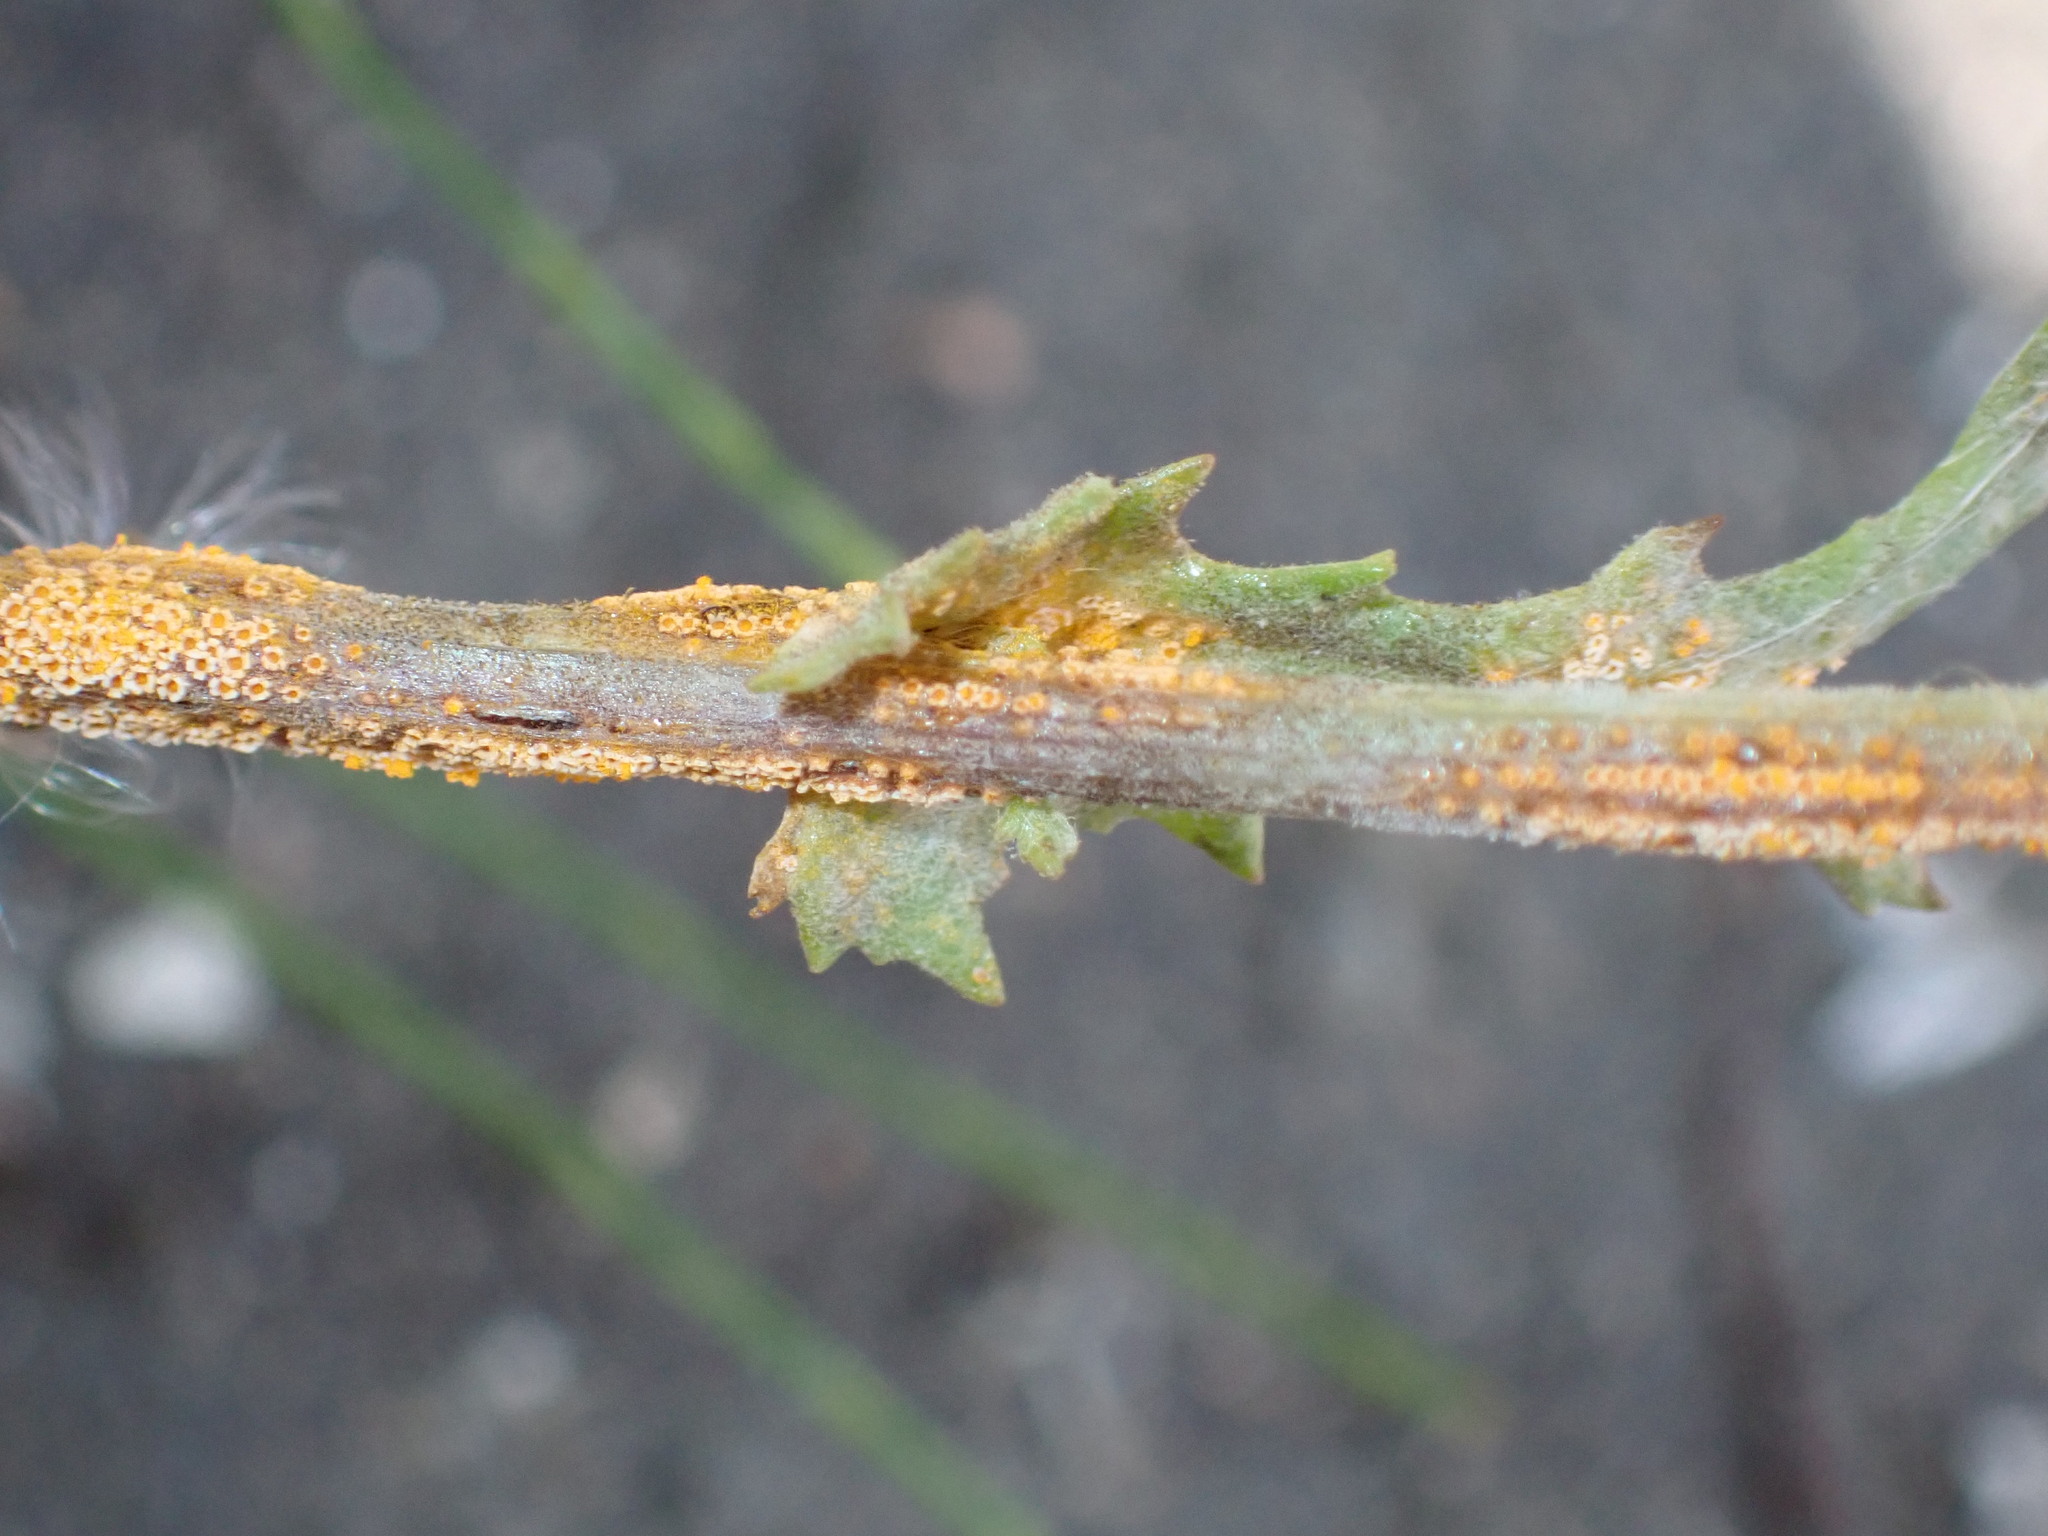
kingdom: Fungi
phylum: Basidiomycota
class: Pucciniomycetes
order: Pucciniales
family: Pucciniaceae
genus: Puccinia
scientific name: Puccinia lagenophorae
